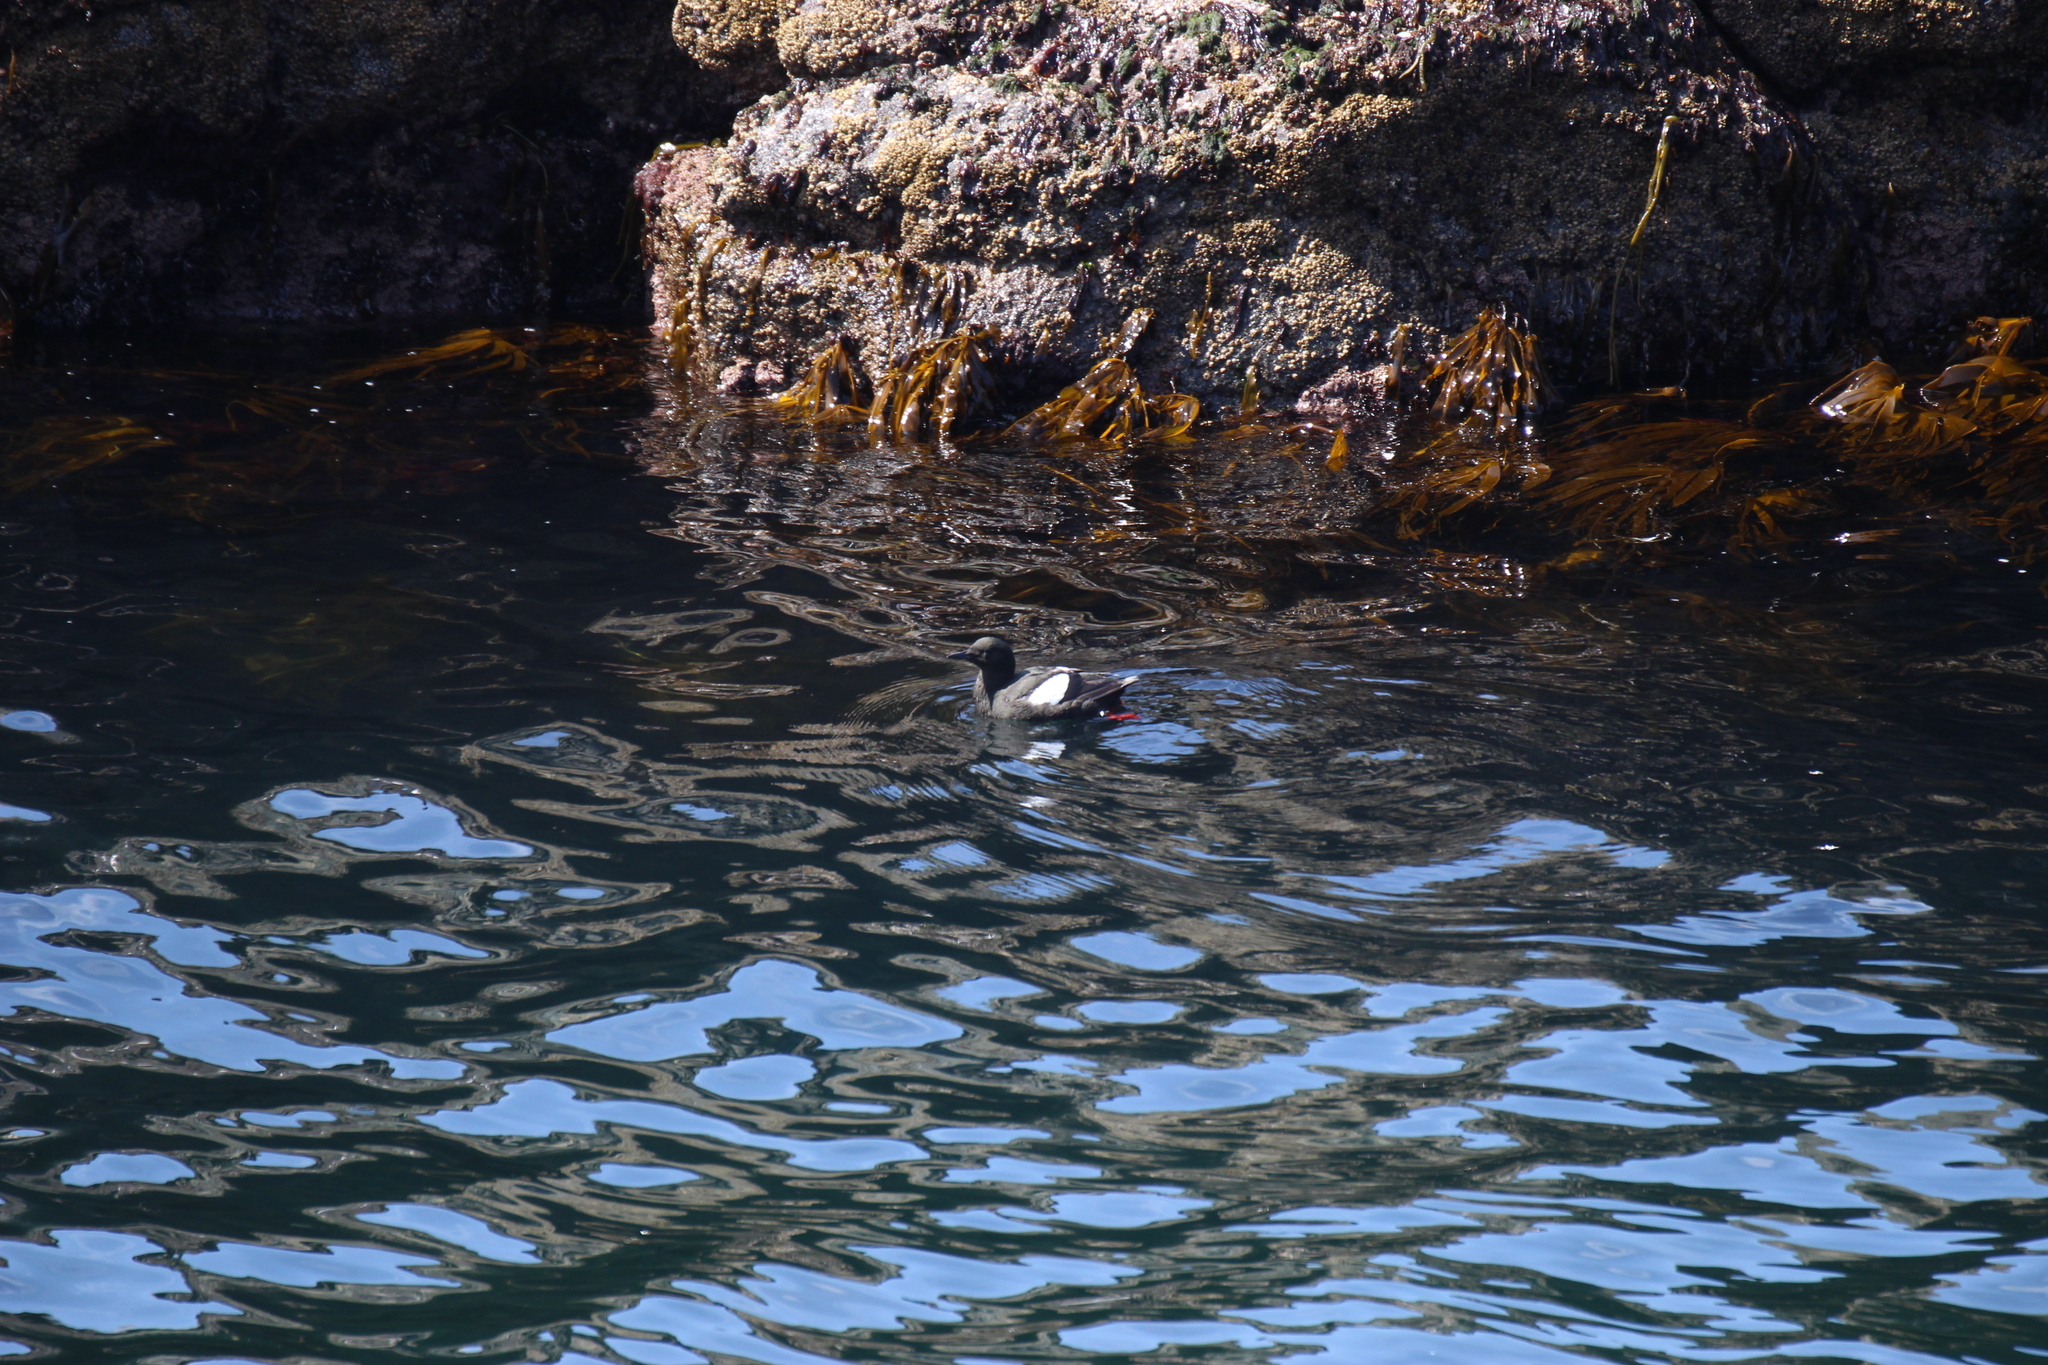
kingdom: Animalia
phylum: Chordata
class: Aves
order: Charadriiformes
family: Alcidae
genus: Cepphus
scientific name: Cepphus grylle
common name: Black guillemot
